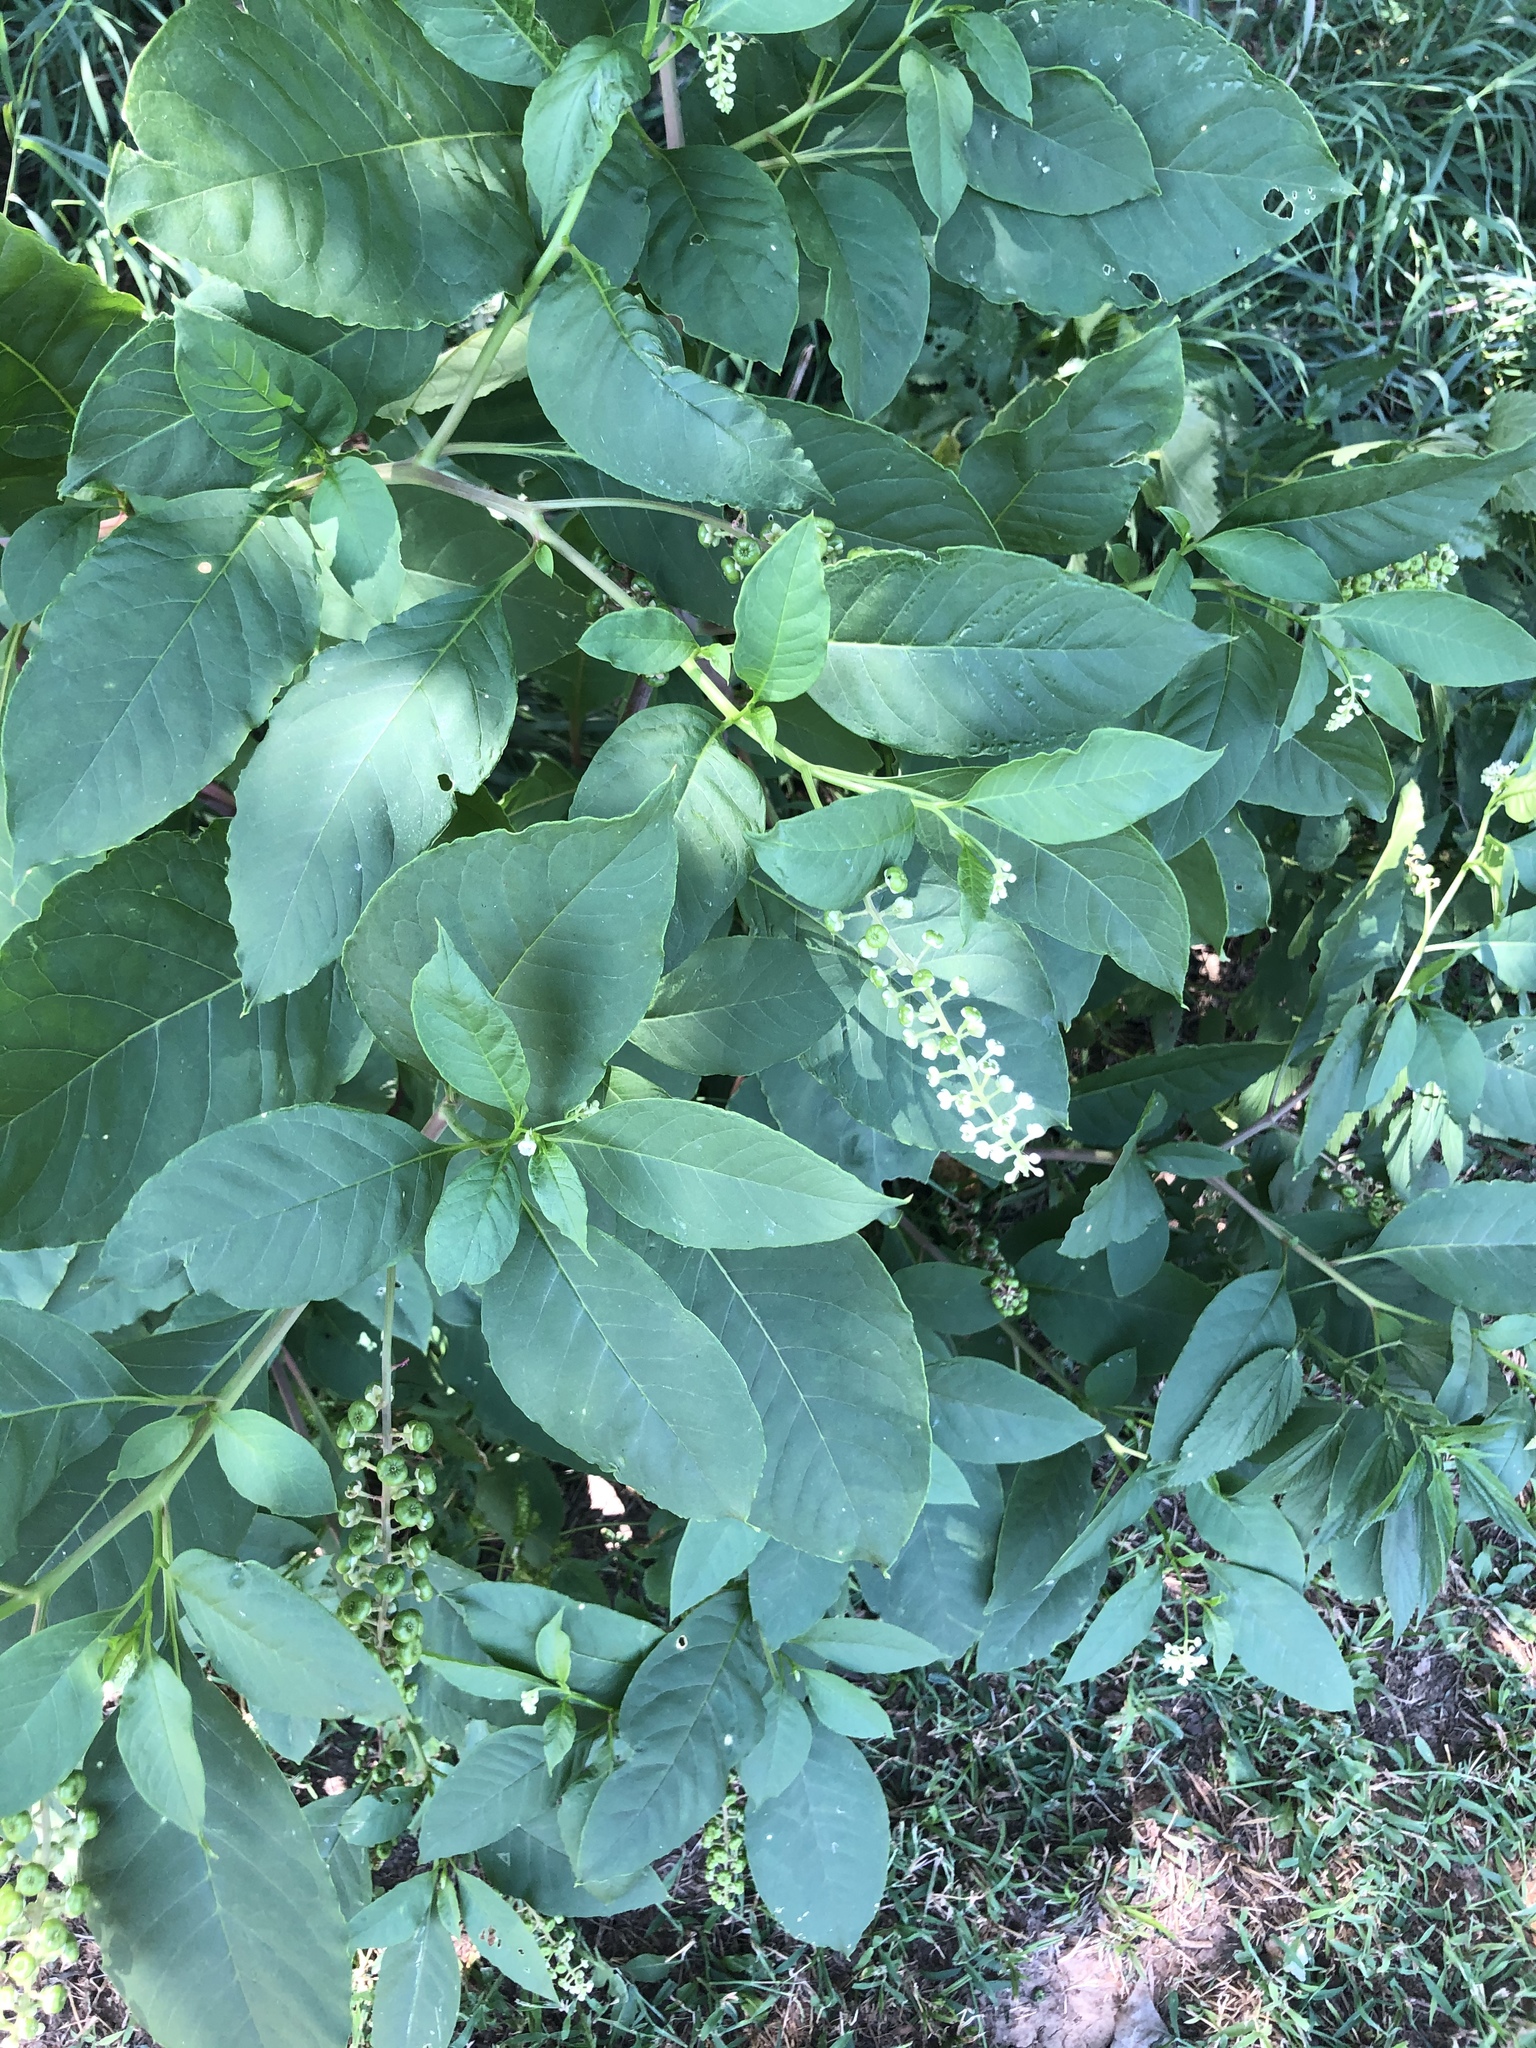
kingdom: Plantae
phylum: Tracheophyta
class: Magnoliopsida
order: Caryophyllales
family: Phytolaccaceae
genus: Phytolacca
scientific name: Phytolacca americana
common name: American pokeweed
